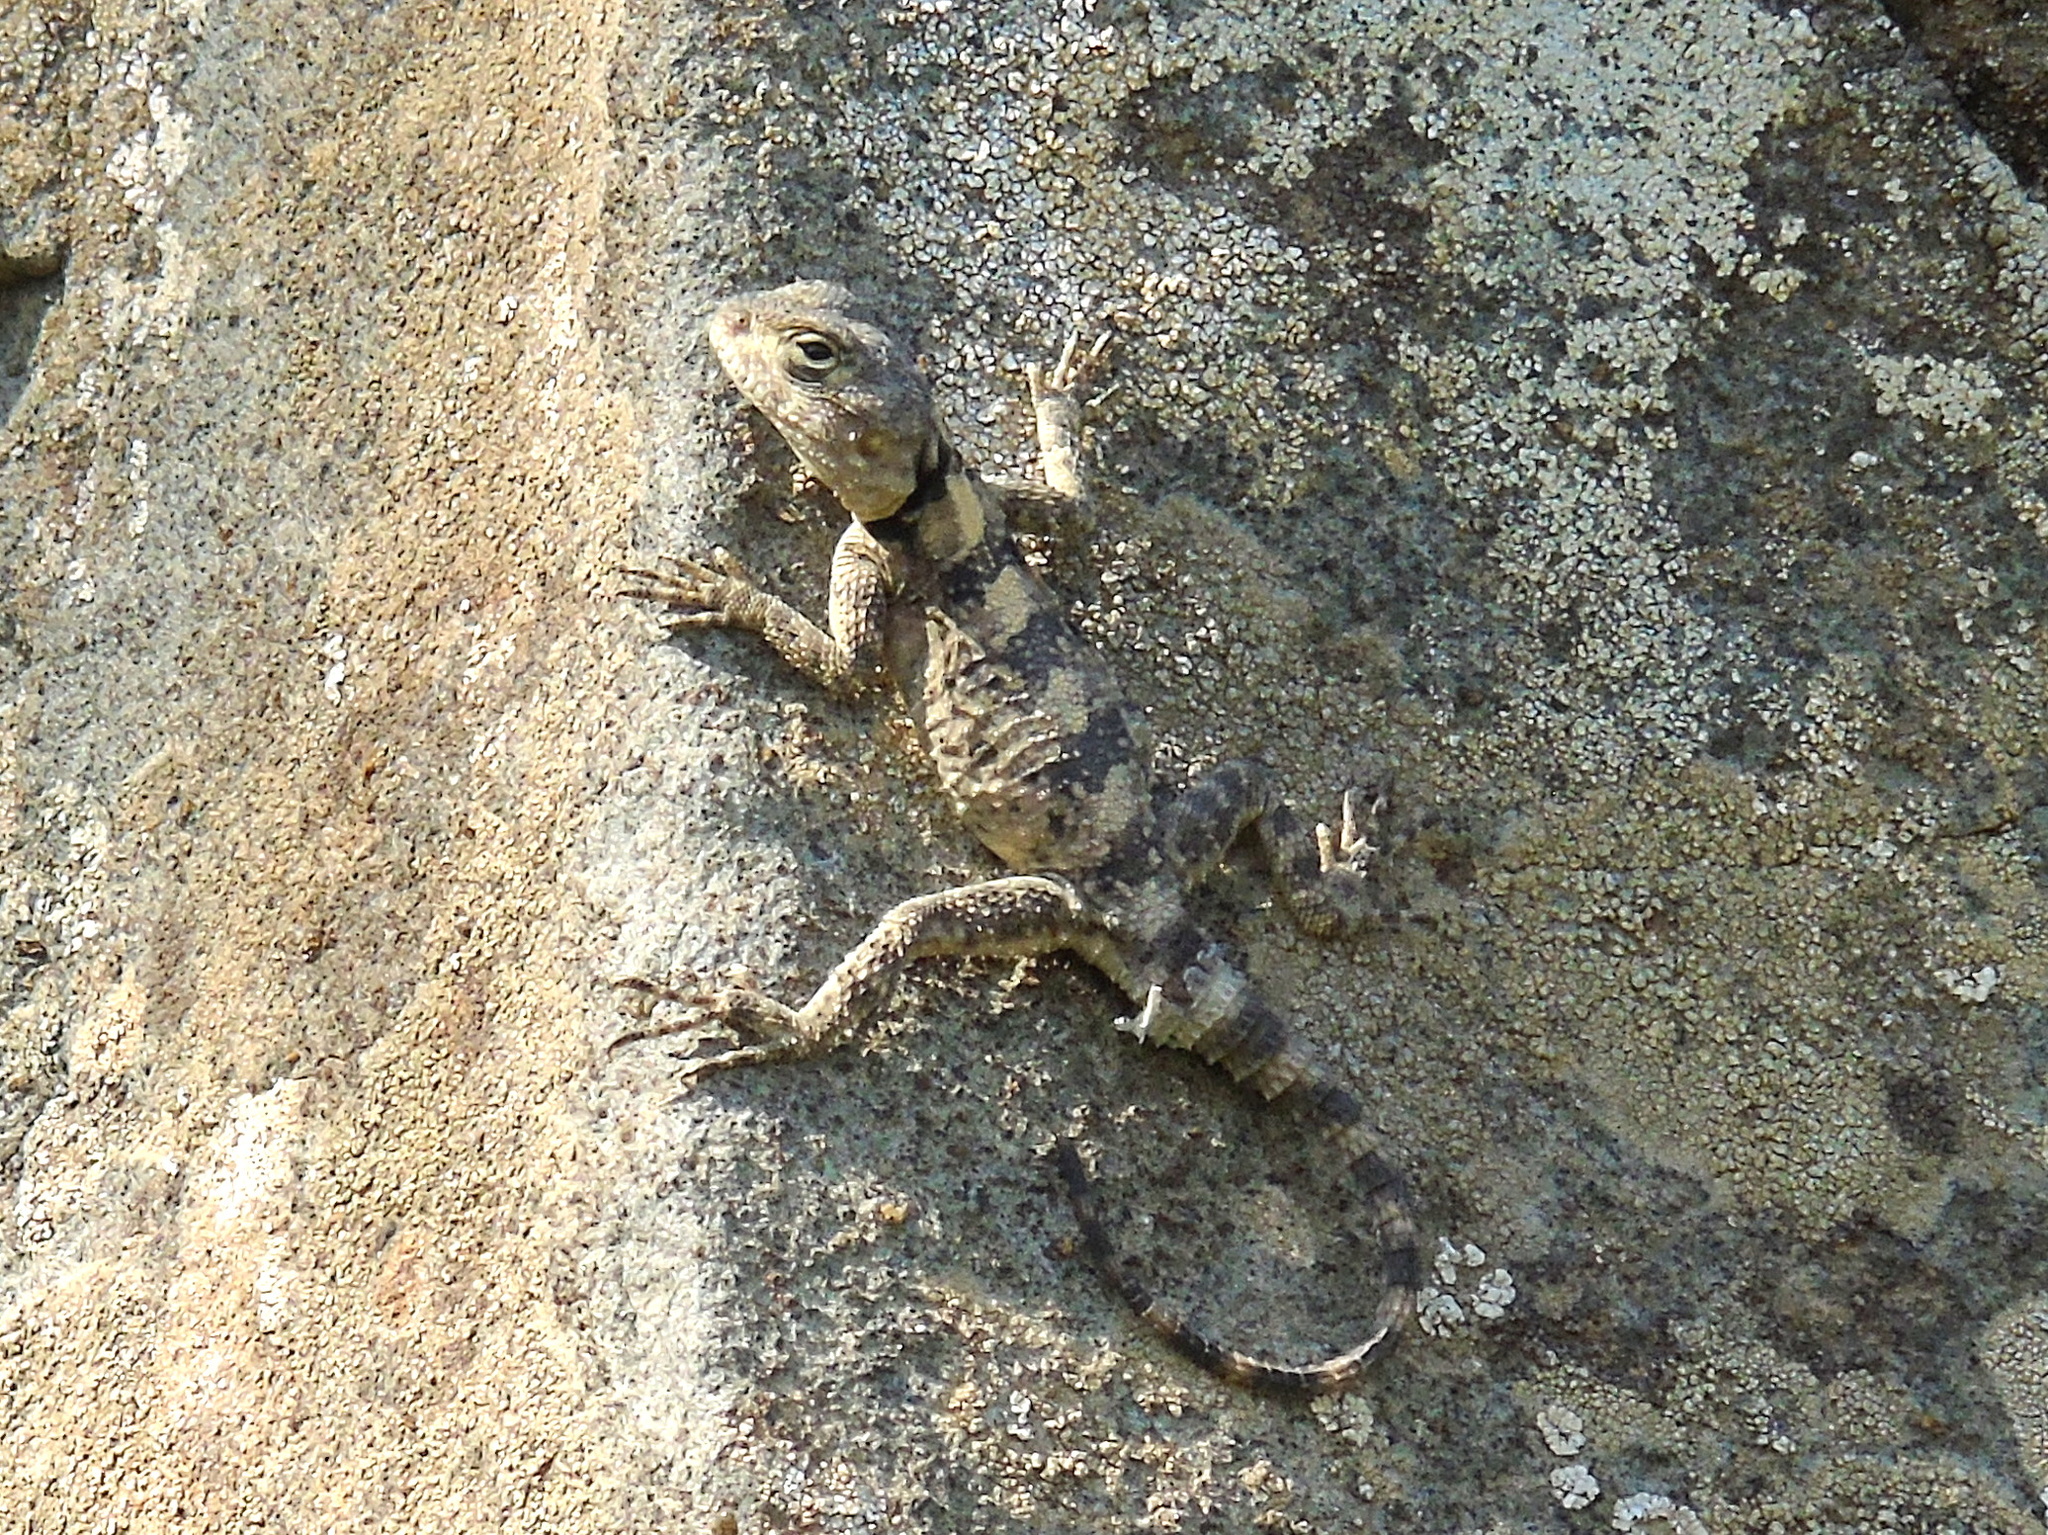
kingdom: Animalia
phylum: Chordata
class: Squamata
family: Agamidae
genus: Stellagama
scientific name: Stellagama stellio
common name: Starred agama
